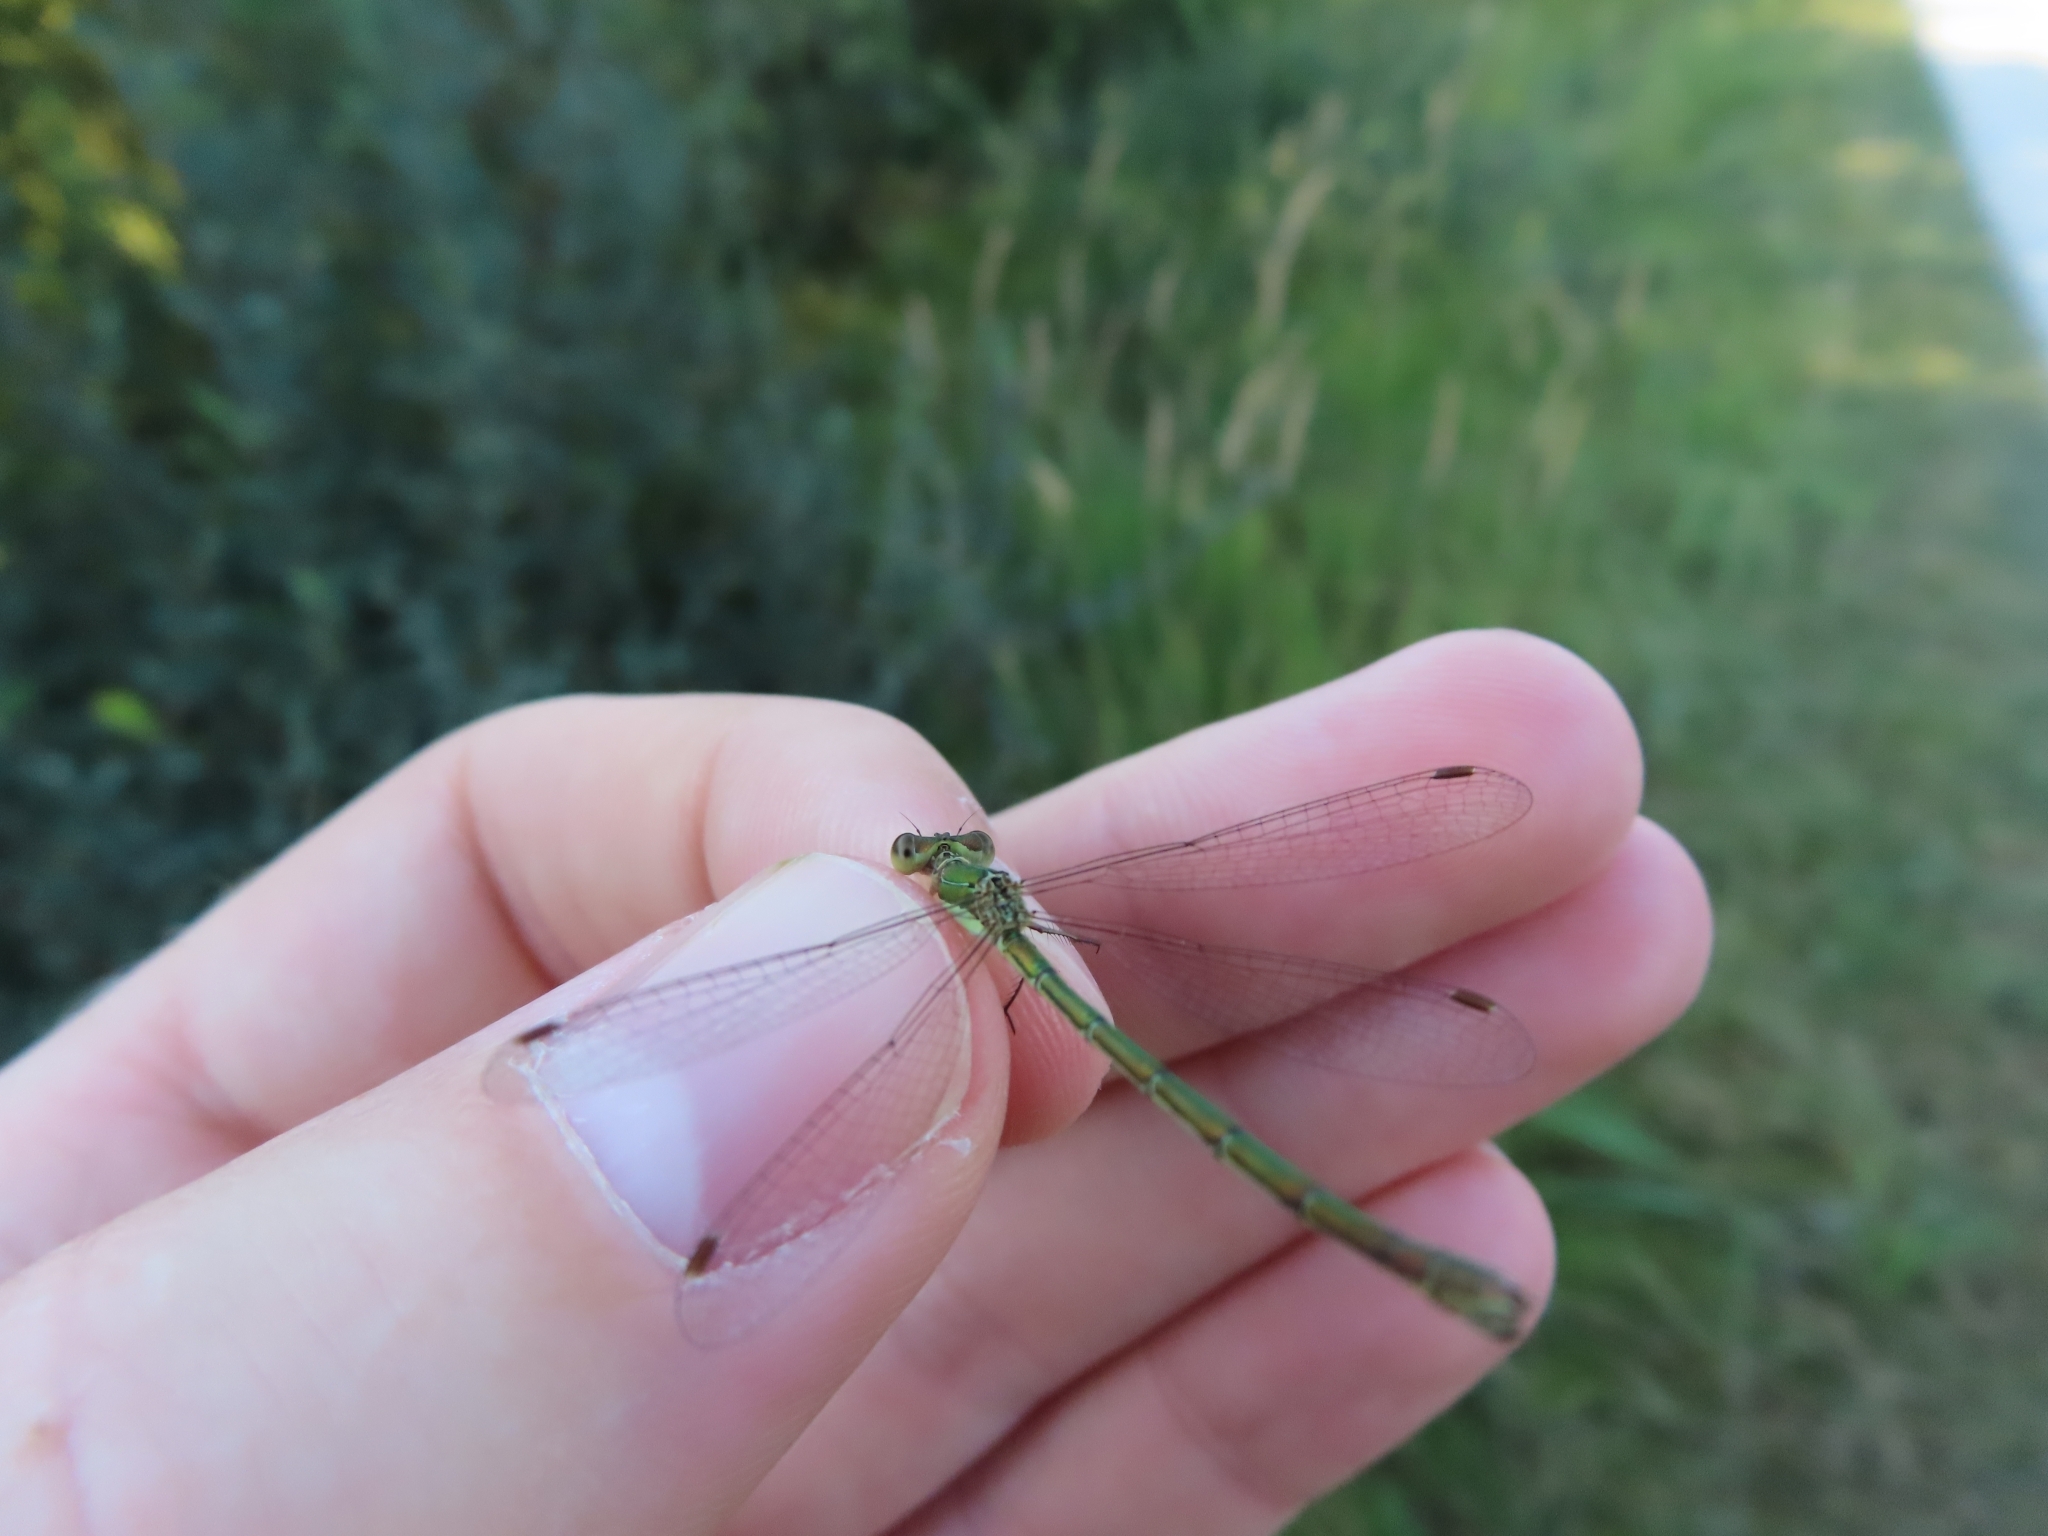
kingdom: Animalia
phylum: Arthropoda
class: Insecta
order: Odonata
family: Lestidae
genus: Lestes
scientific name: Lestes virens
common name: Small emerald spreadwing
